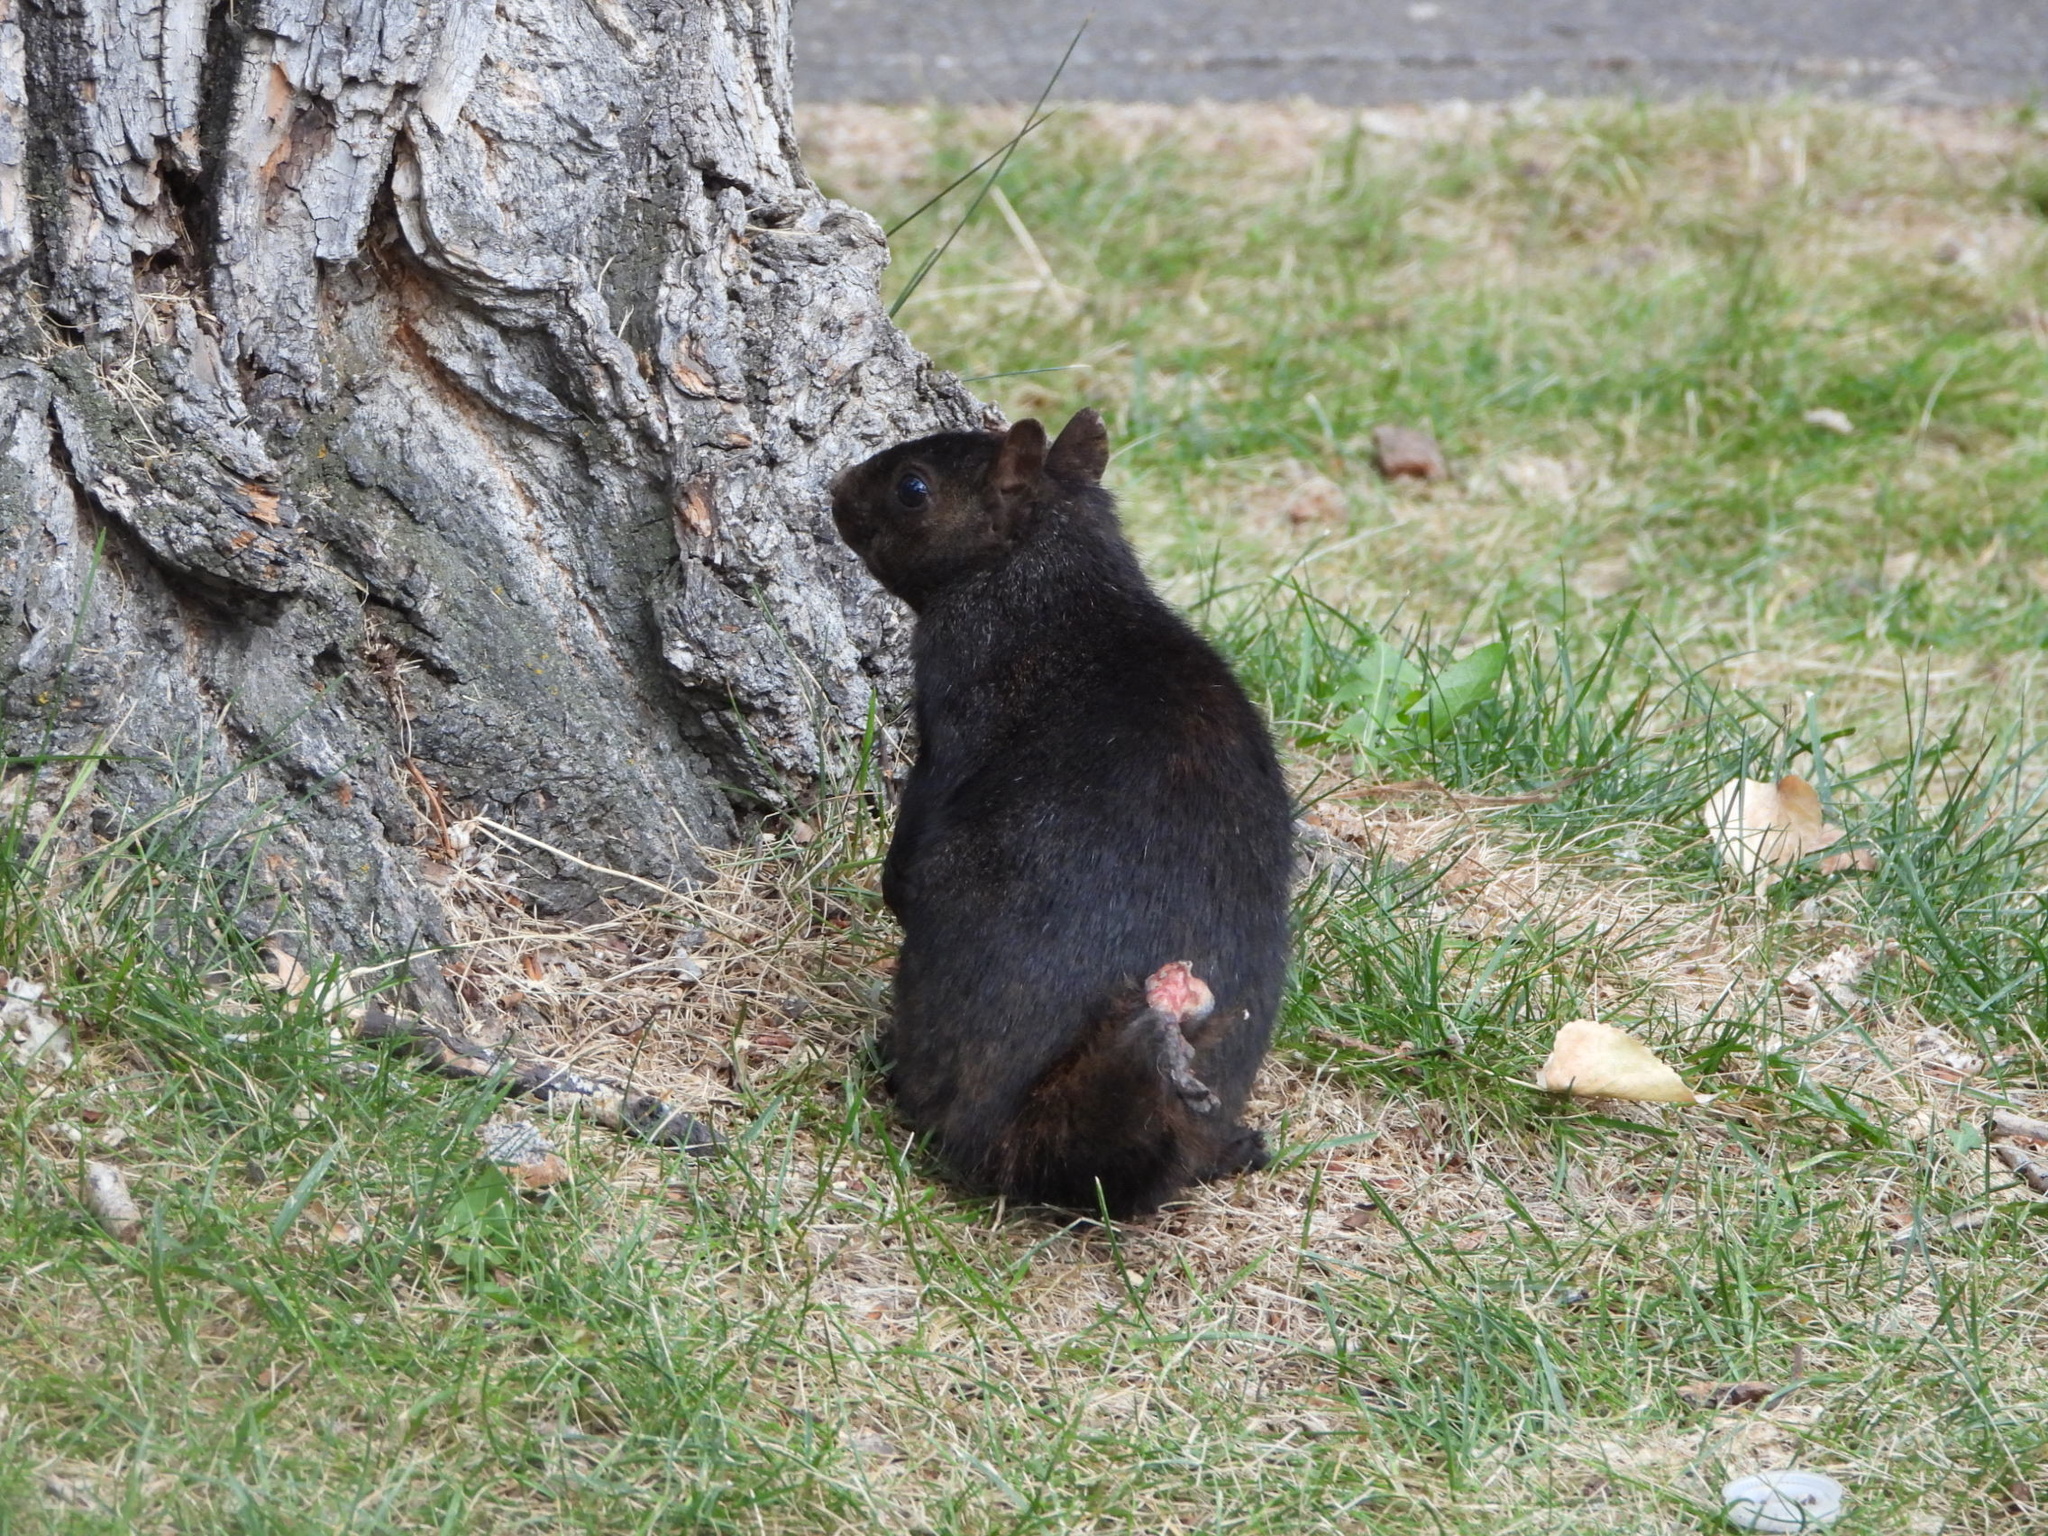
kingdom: Animalia
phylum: Chordata
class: Mammalia
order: Rodentia
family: Sciuridae
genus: Sciurus
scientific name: Sciurus carolinensis
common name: Eastern gray squirrel
